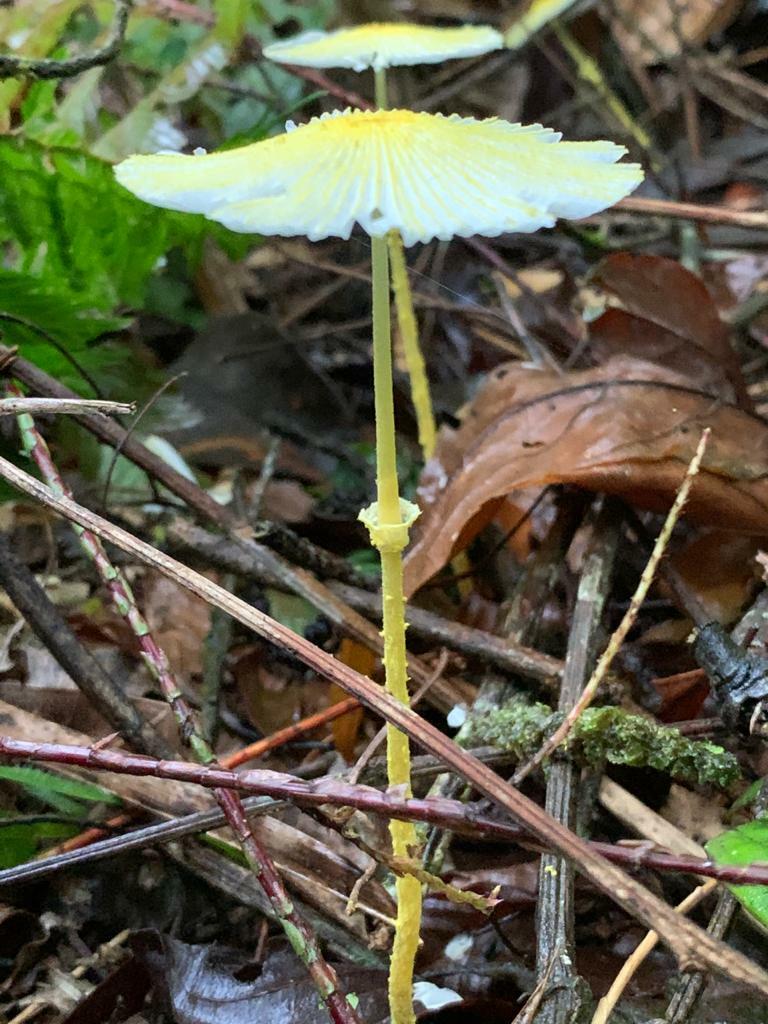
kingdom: Fungi
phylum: Basidiomycota
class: Agaricomycetes
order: Agaricales
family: Agaricaceae
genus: Leucocoprinus
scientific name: Leucocoprinus fragilissimus
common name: Fragile dapperling
